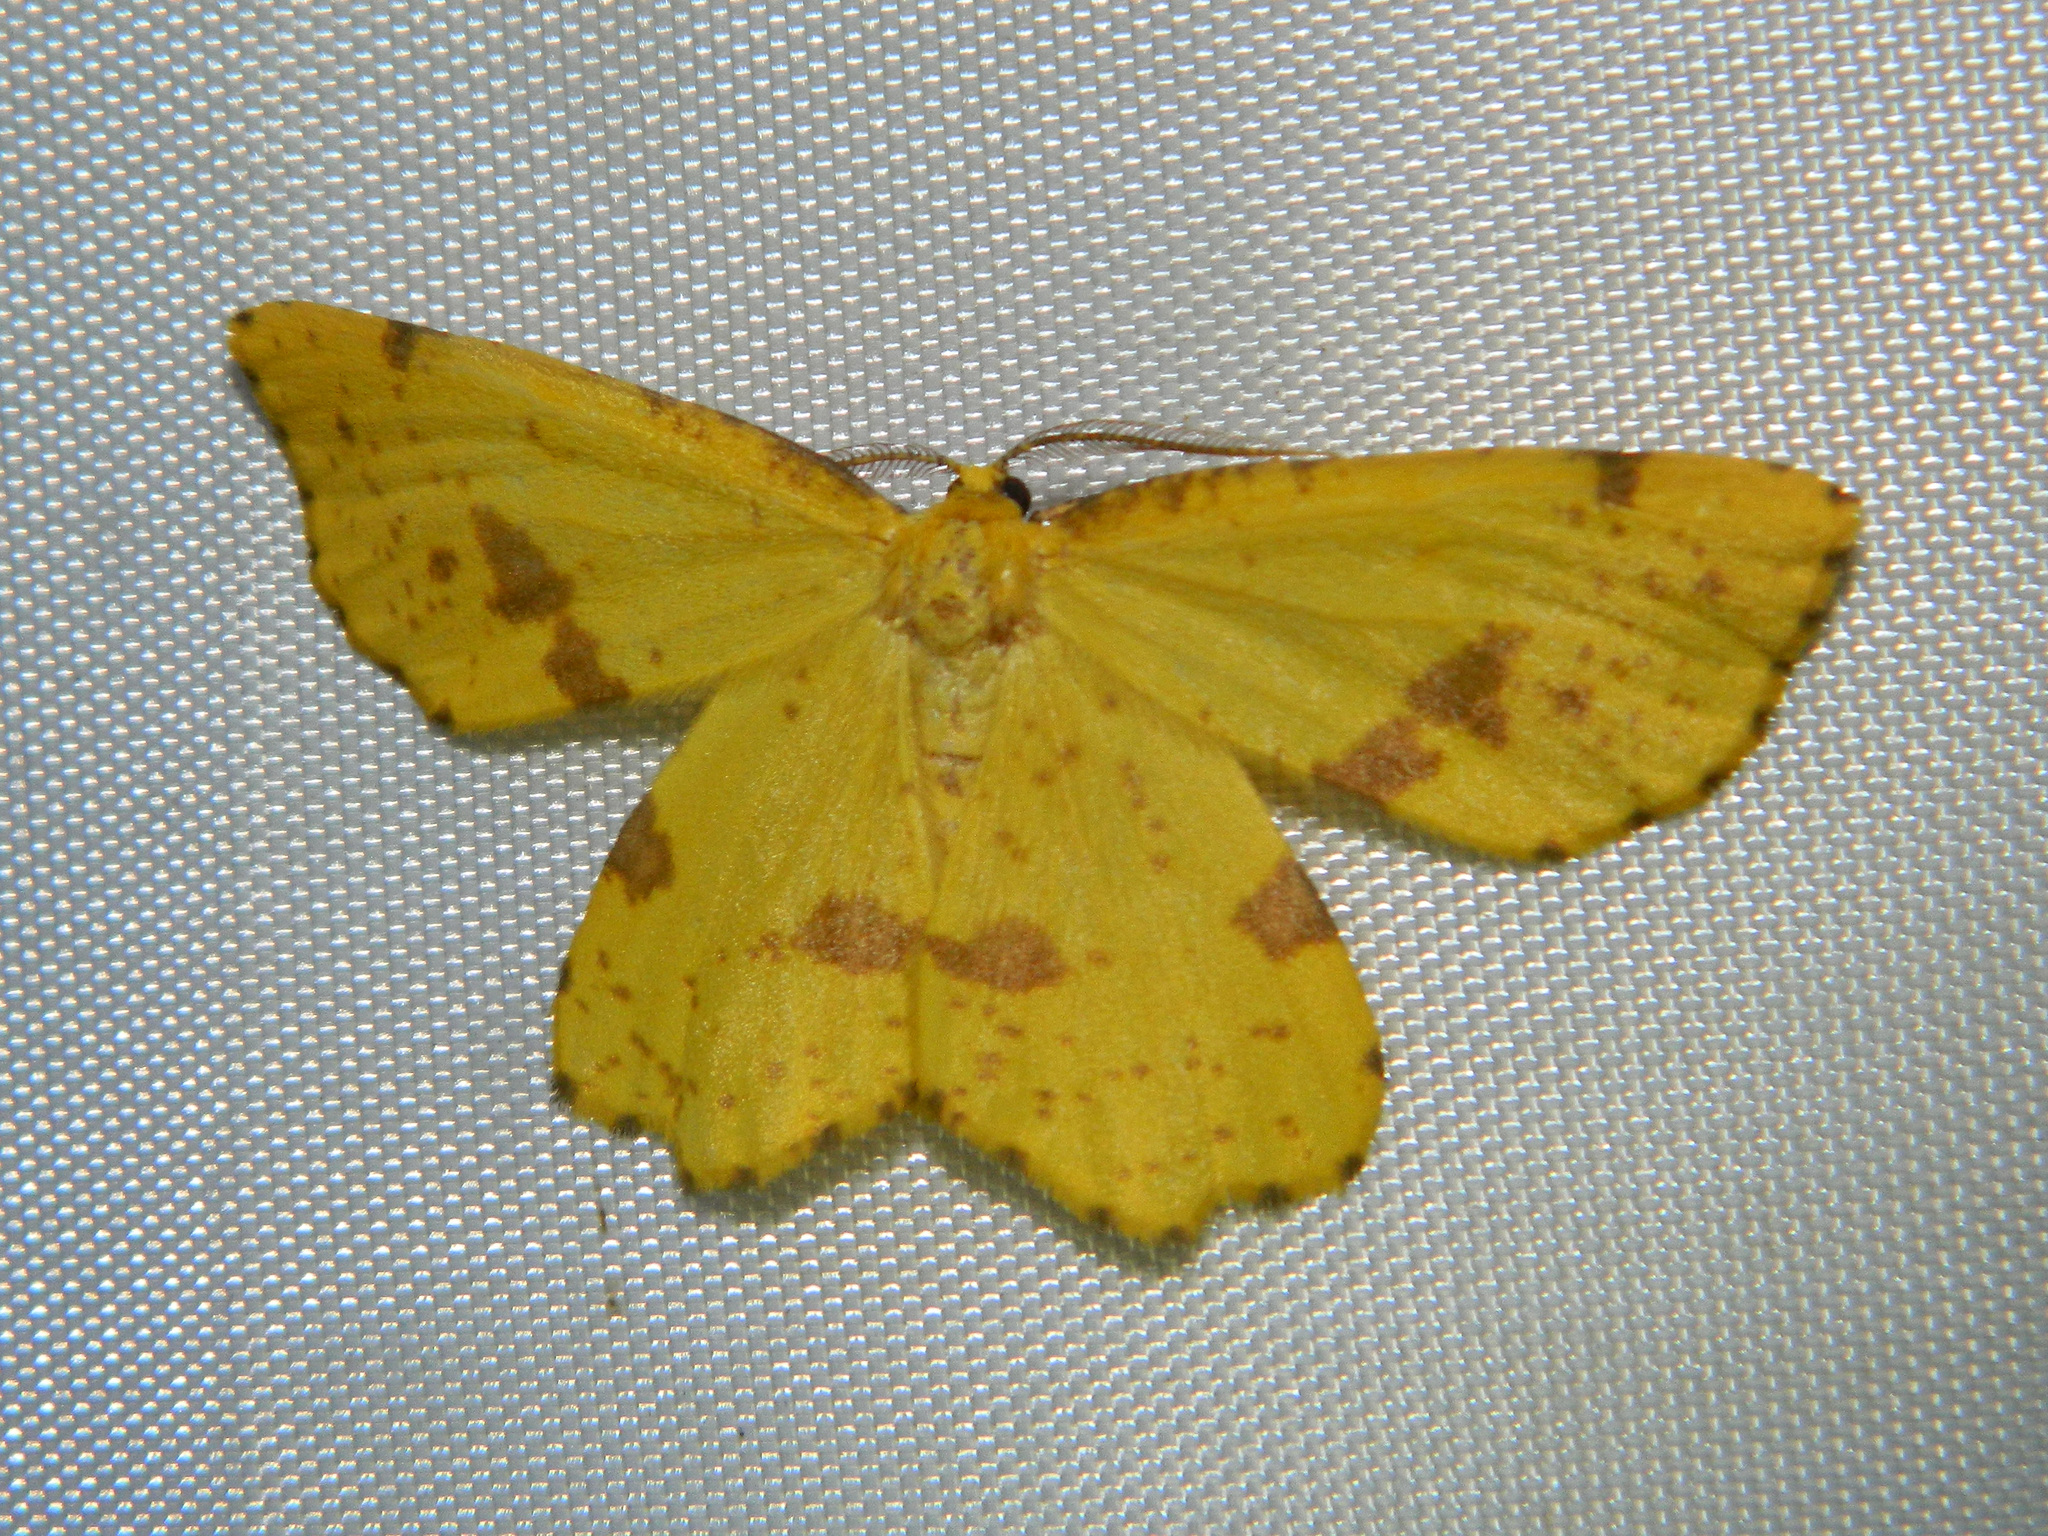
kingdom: Animalia
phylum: Arthropoda
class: Insecta
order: Lepidoptera
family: Geometridae
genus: Xanthotype
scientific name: Xanthotype
